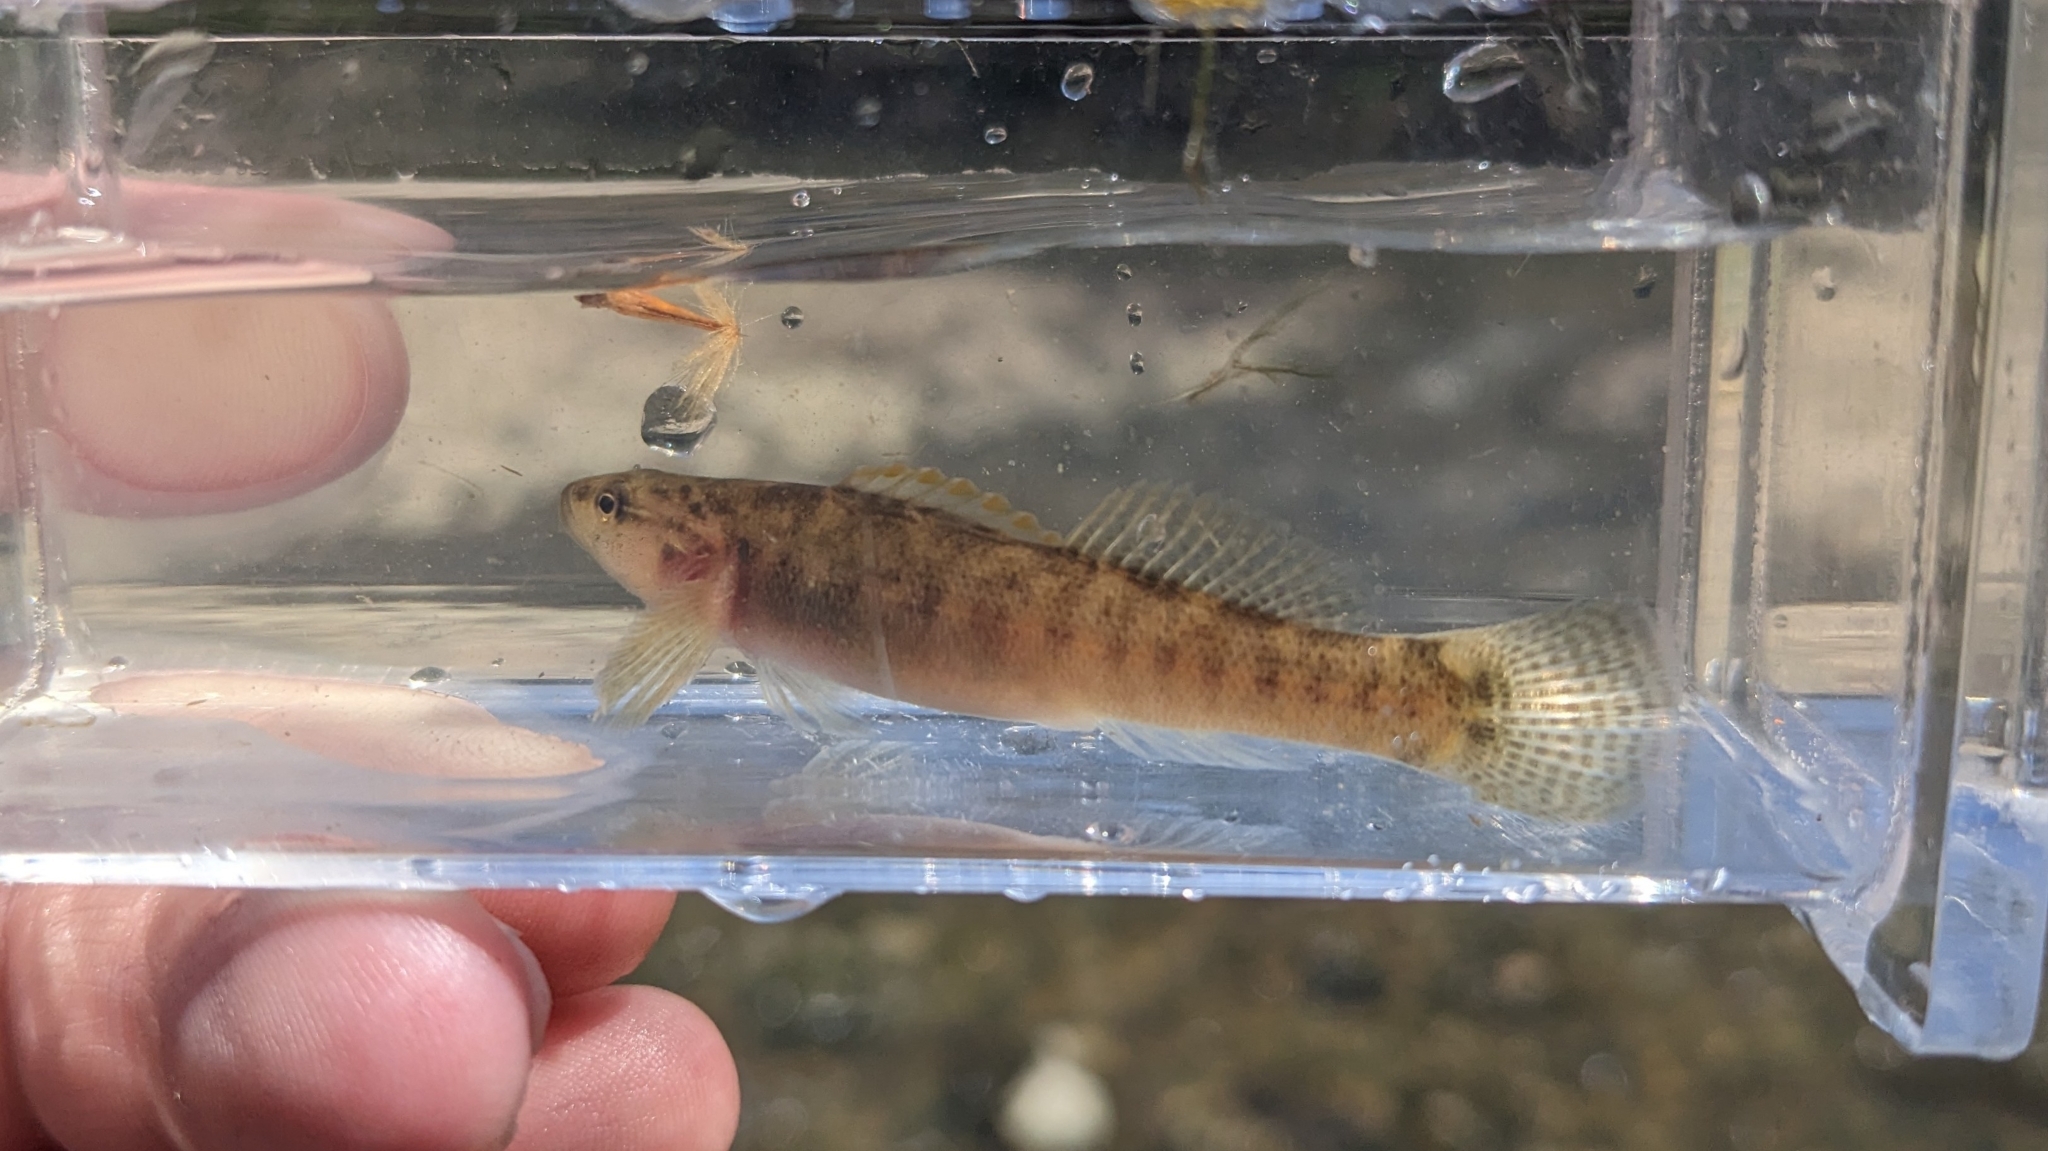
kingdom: Animalia
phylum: Chordata
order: Perciformes
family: Percidae
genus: Etheostoma
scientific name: Etheostoma flabellare
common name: Fantail darter
